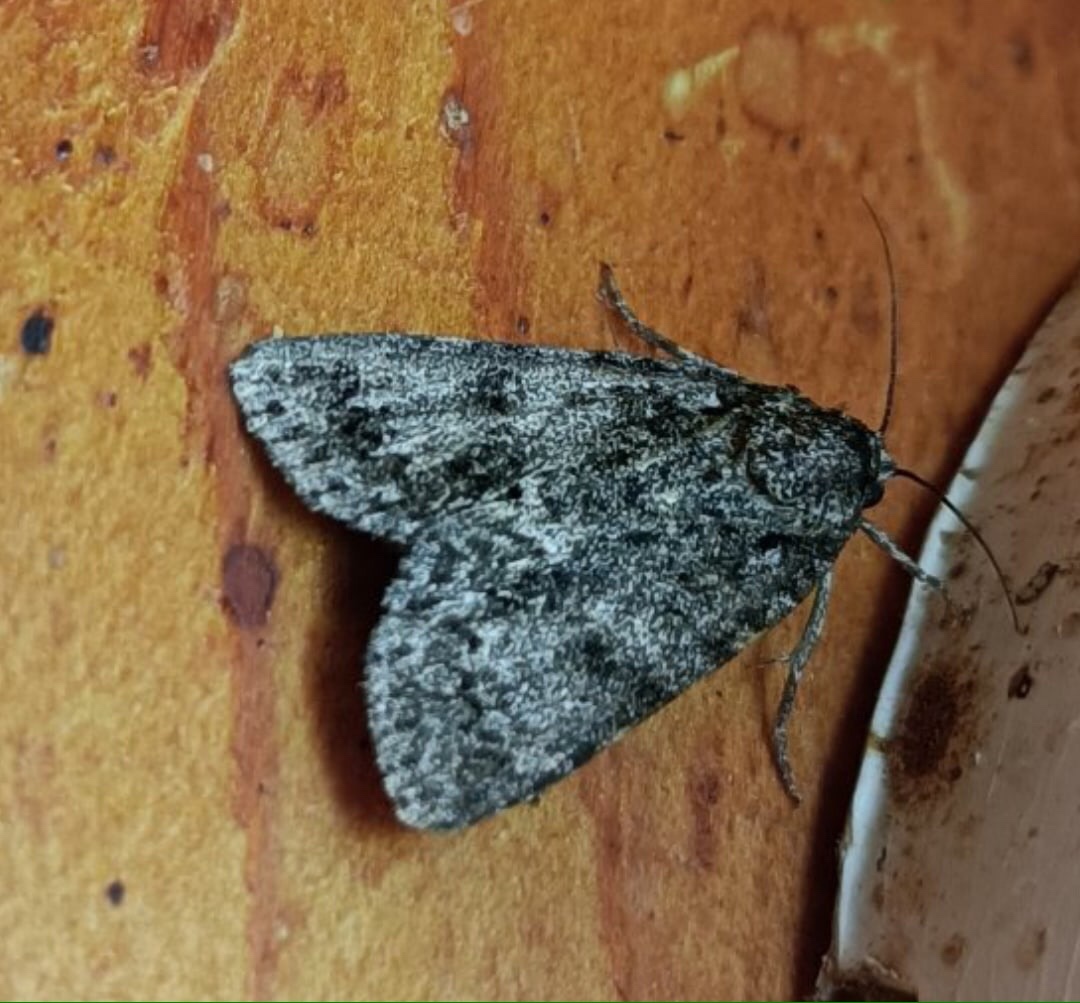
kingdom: Animalia
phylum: Arthropoda
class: Insecta
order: Lepidoptera
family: Noctuidae
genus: Acronicta
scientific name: Acronicta rumicis
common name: Knot grass
